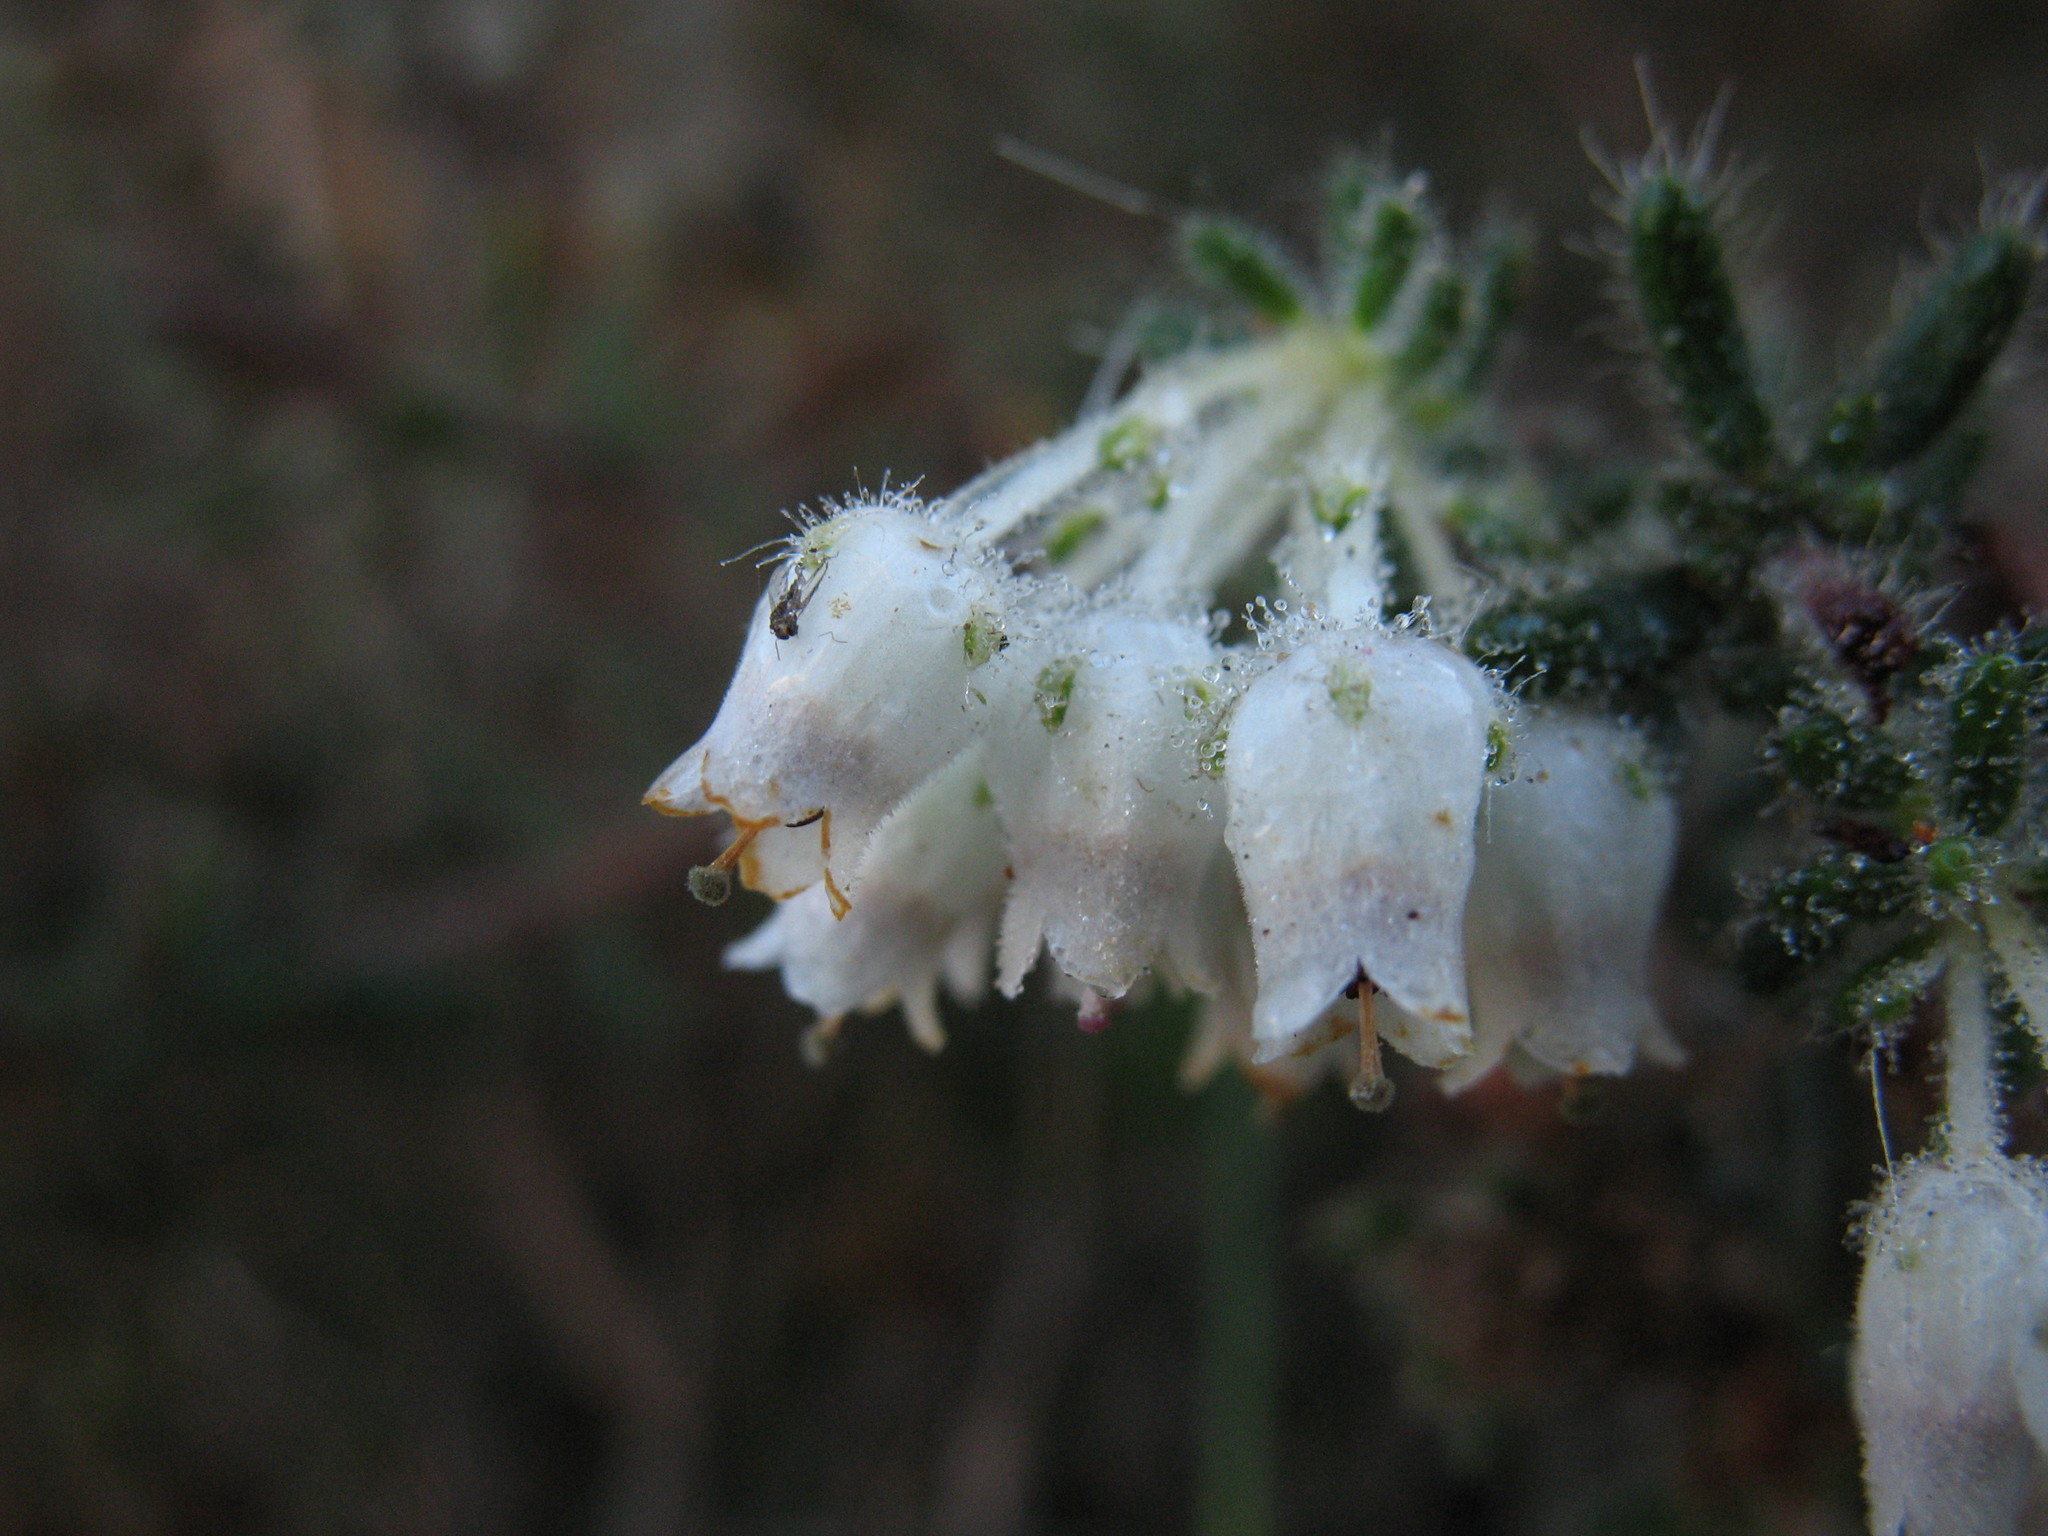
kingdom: Plantae
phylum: Tracheophyta
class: Magnoliopsida
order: Ericales
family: Ericaceae
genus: Erica
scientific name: Erica pannosa
